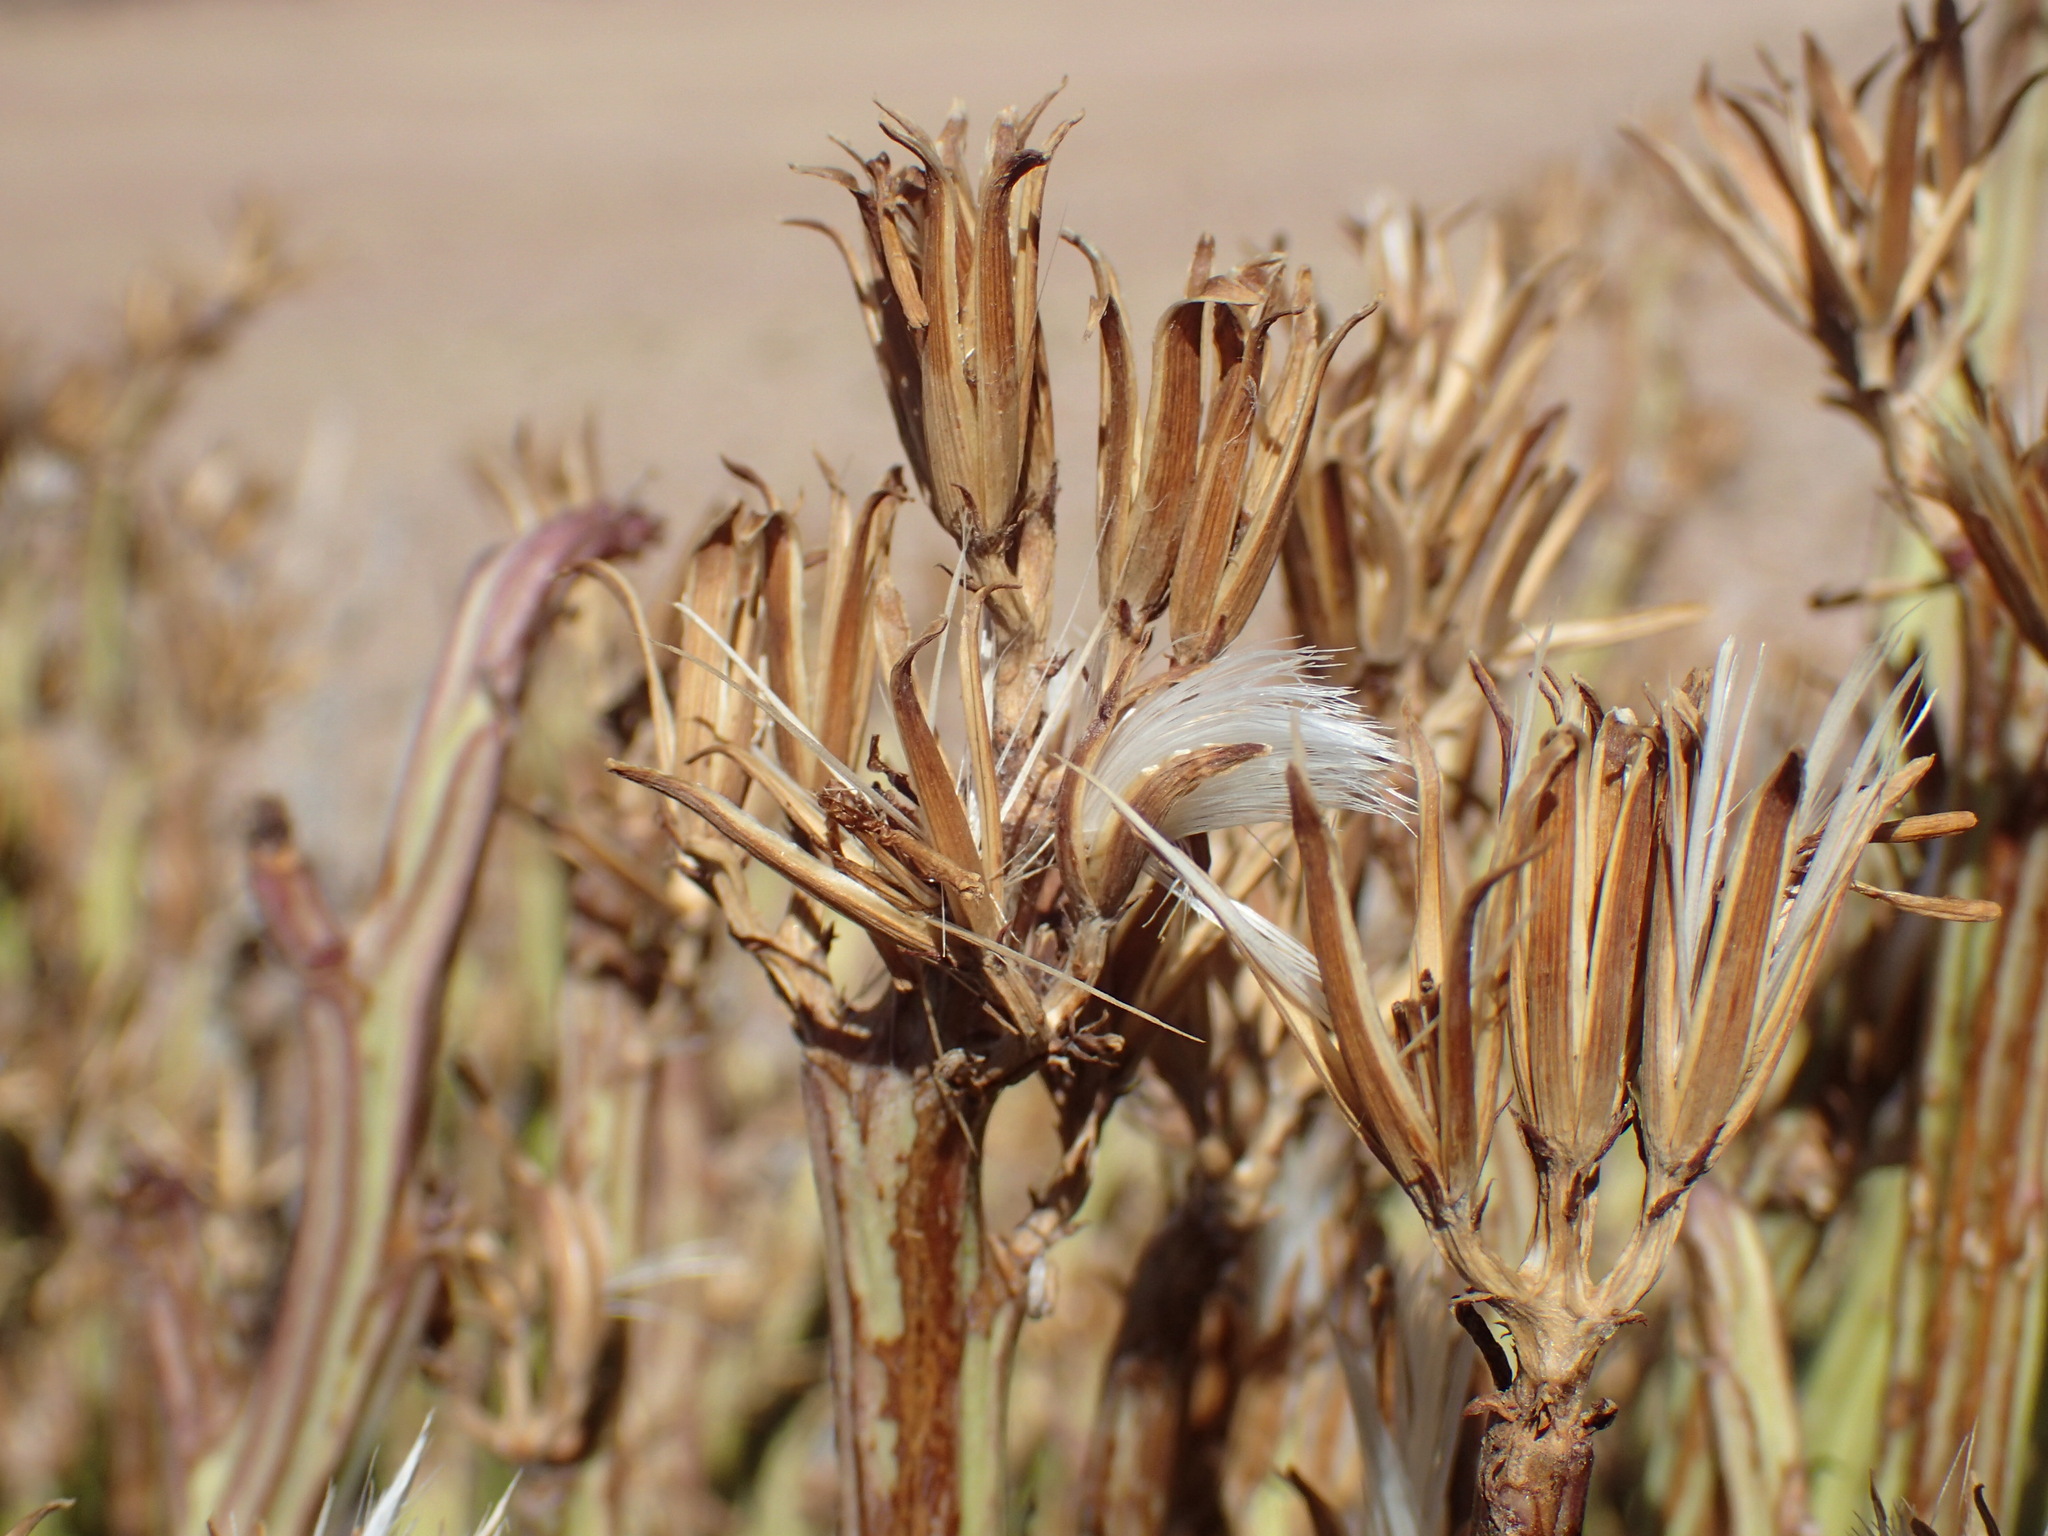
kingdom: Plantae
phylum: Tracheophyta
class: Magnoliopsida
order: Asterales
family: Asteraceae
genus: Curio
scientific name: Curio avasimontanus
